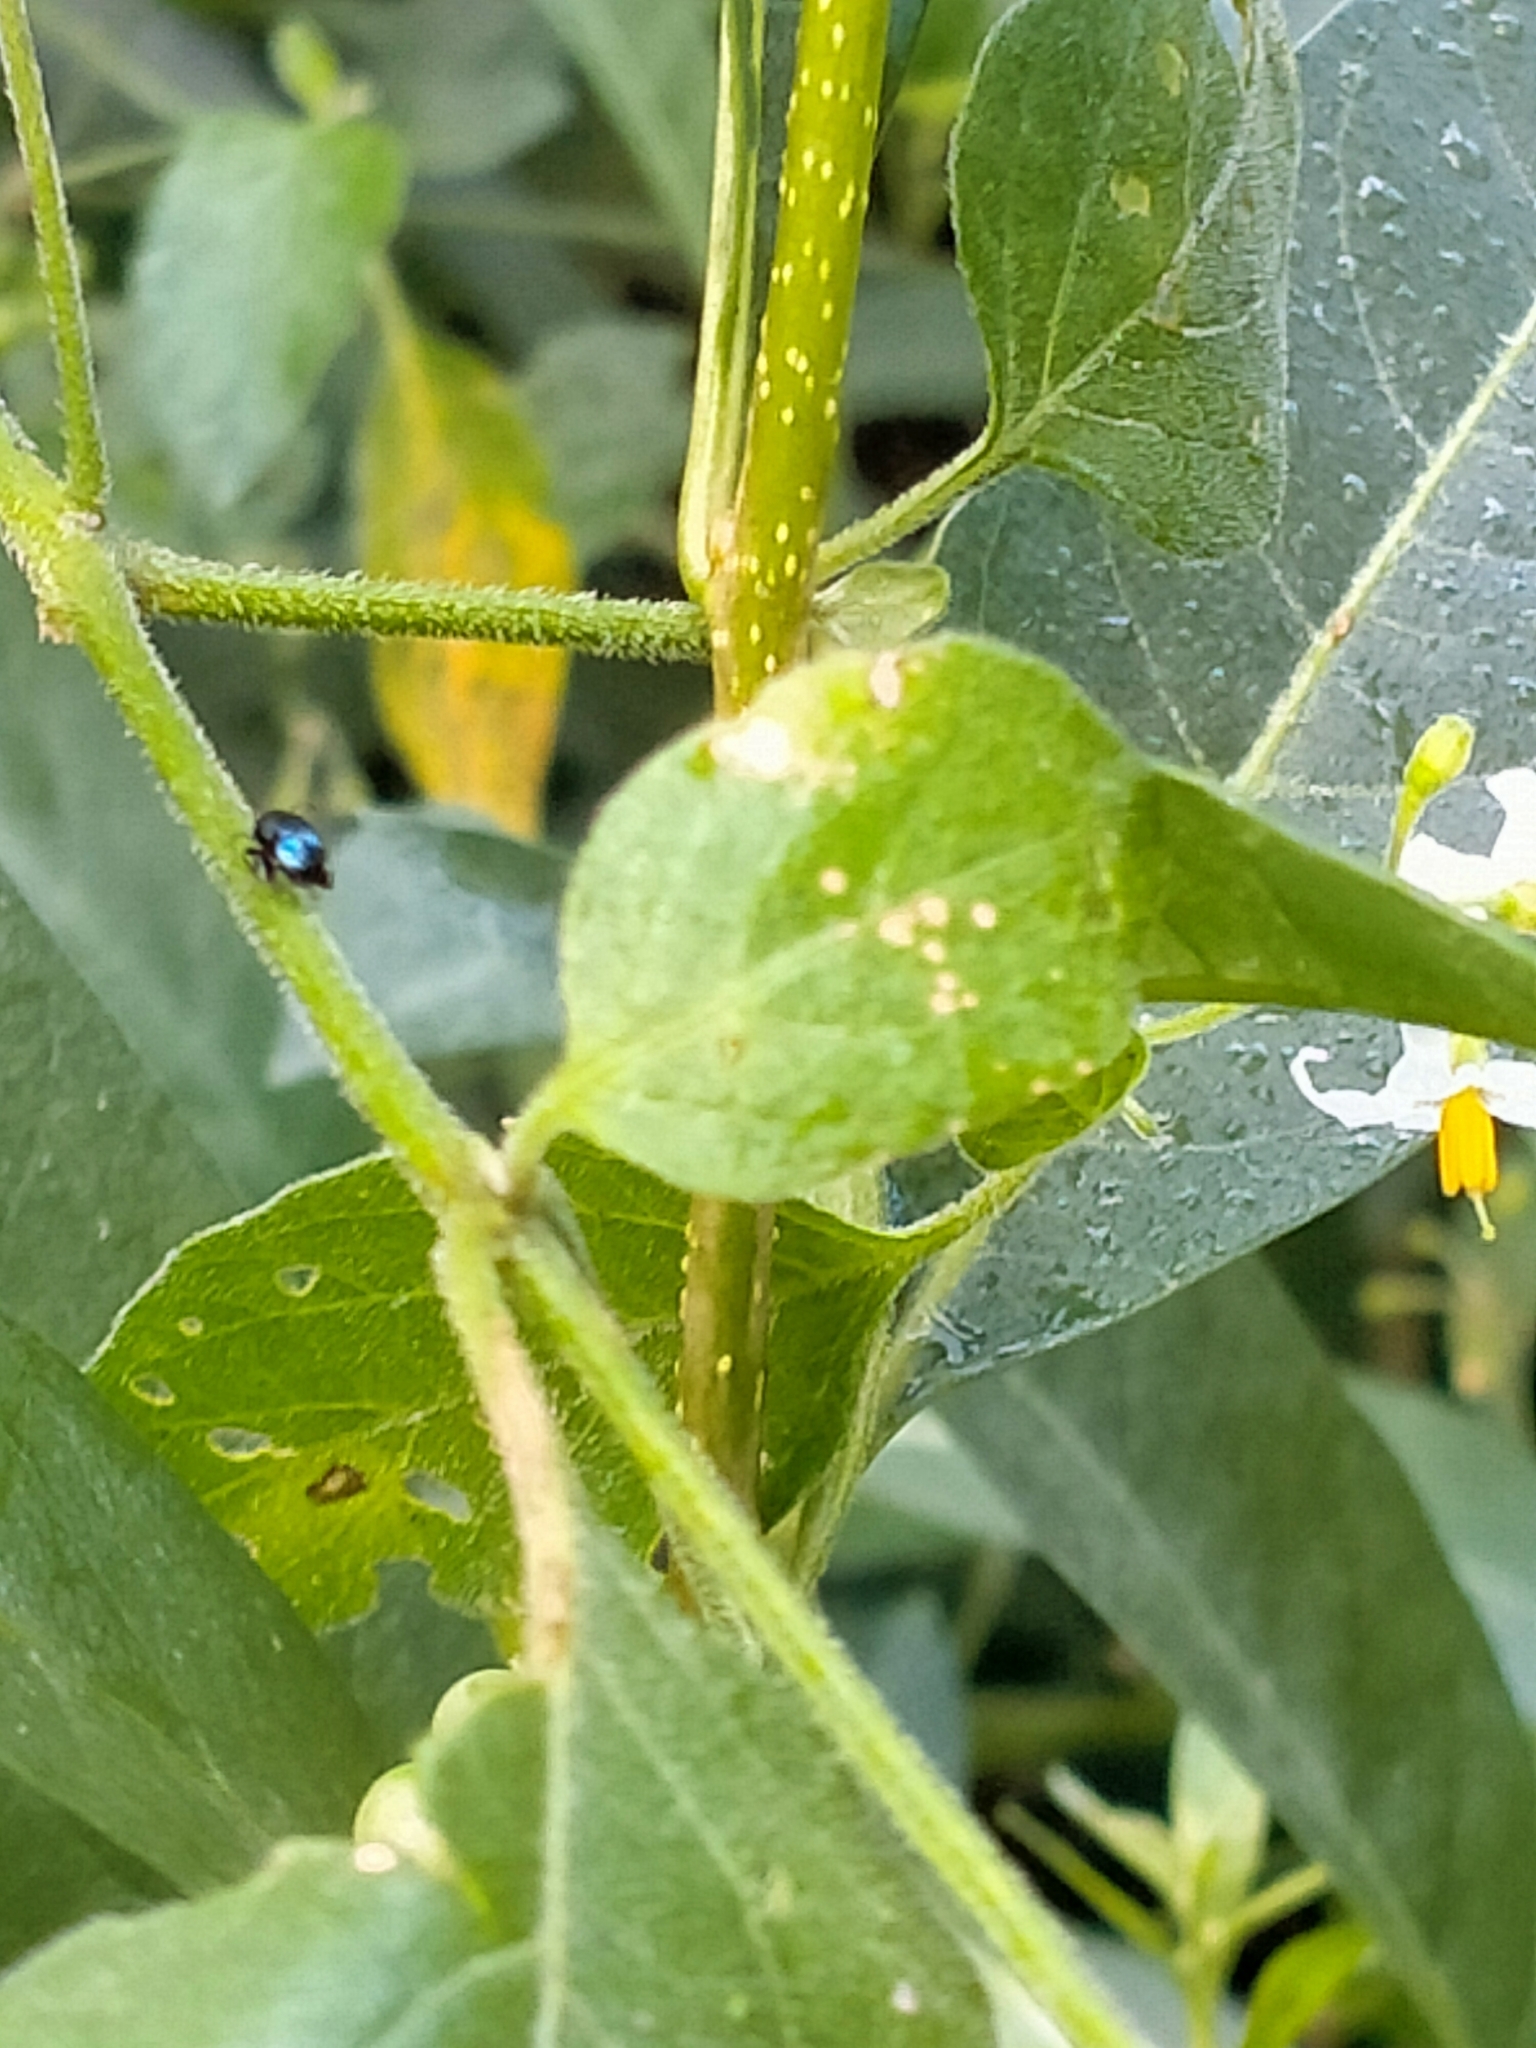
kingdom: Plantae
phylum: Tracheophyta
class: Magnoliopsida
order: Solanales
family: Solanaceae
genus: Solanum
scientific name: Solanum chenopodioides
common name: Tall nightshade
